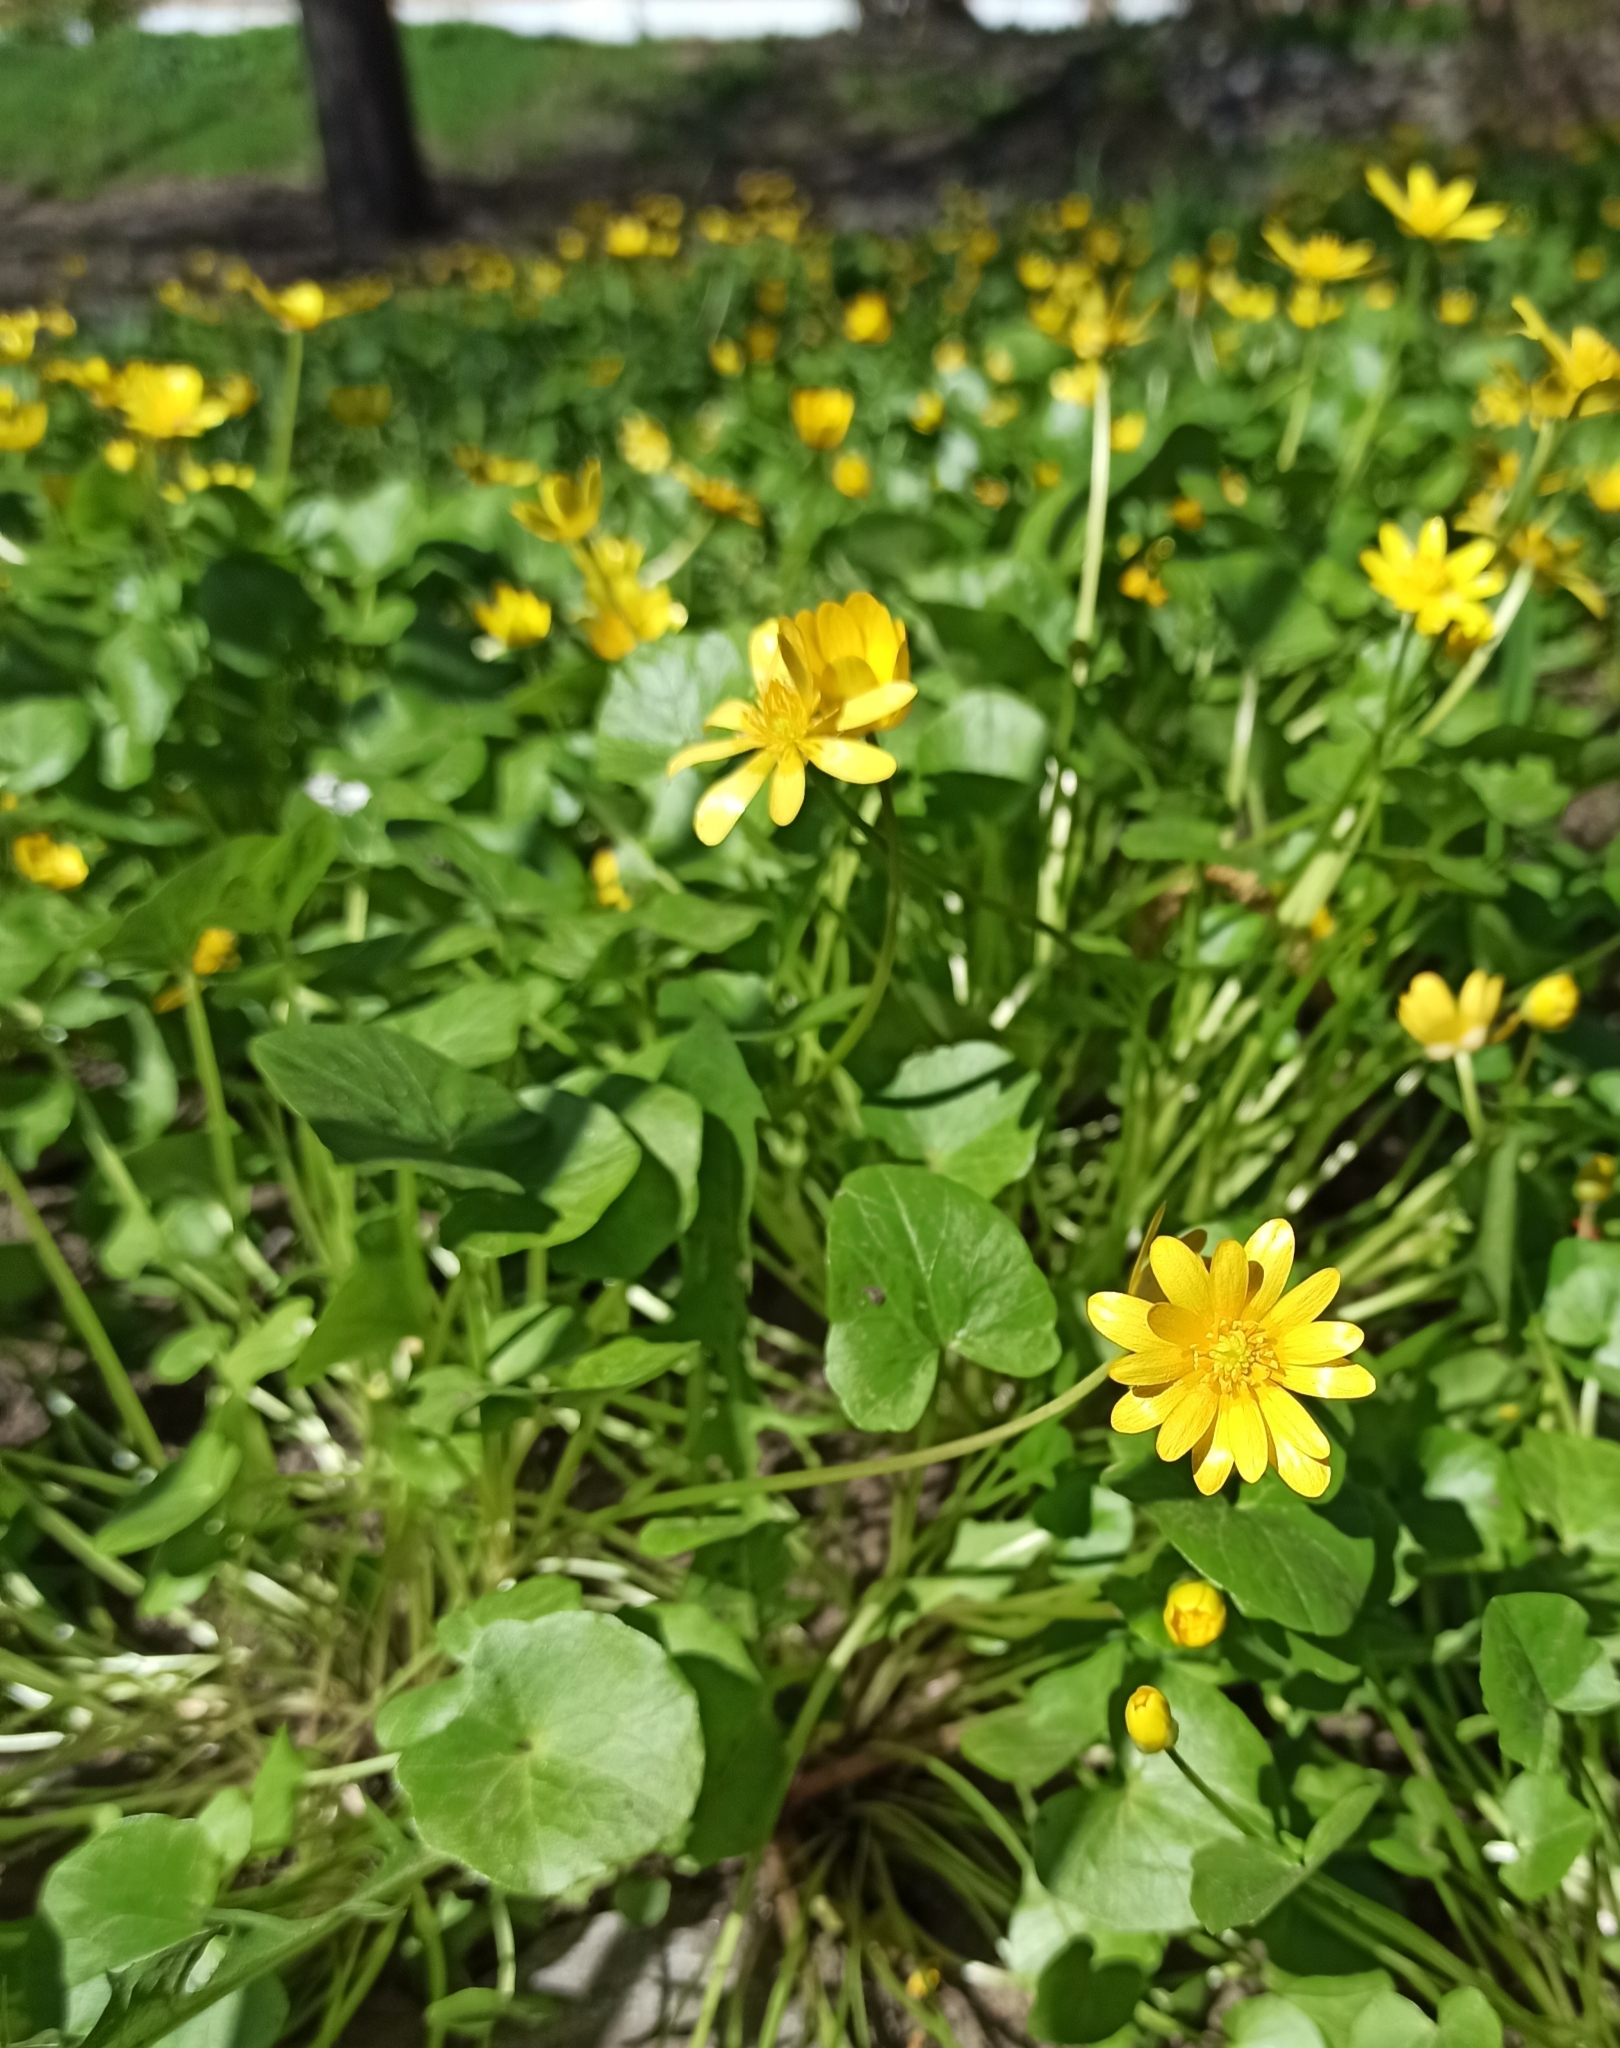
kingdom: Plantae
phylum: Tracheophyta
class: Magnoliopsida
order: Ranunculales
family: Ranunculaceae
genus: Ficaria
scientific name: Ficaria verna
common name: Lesser celandine
